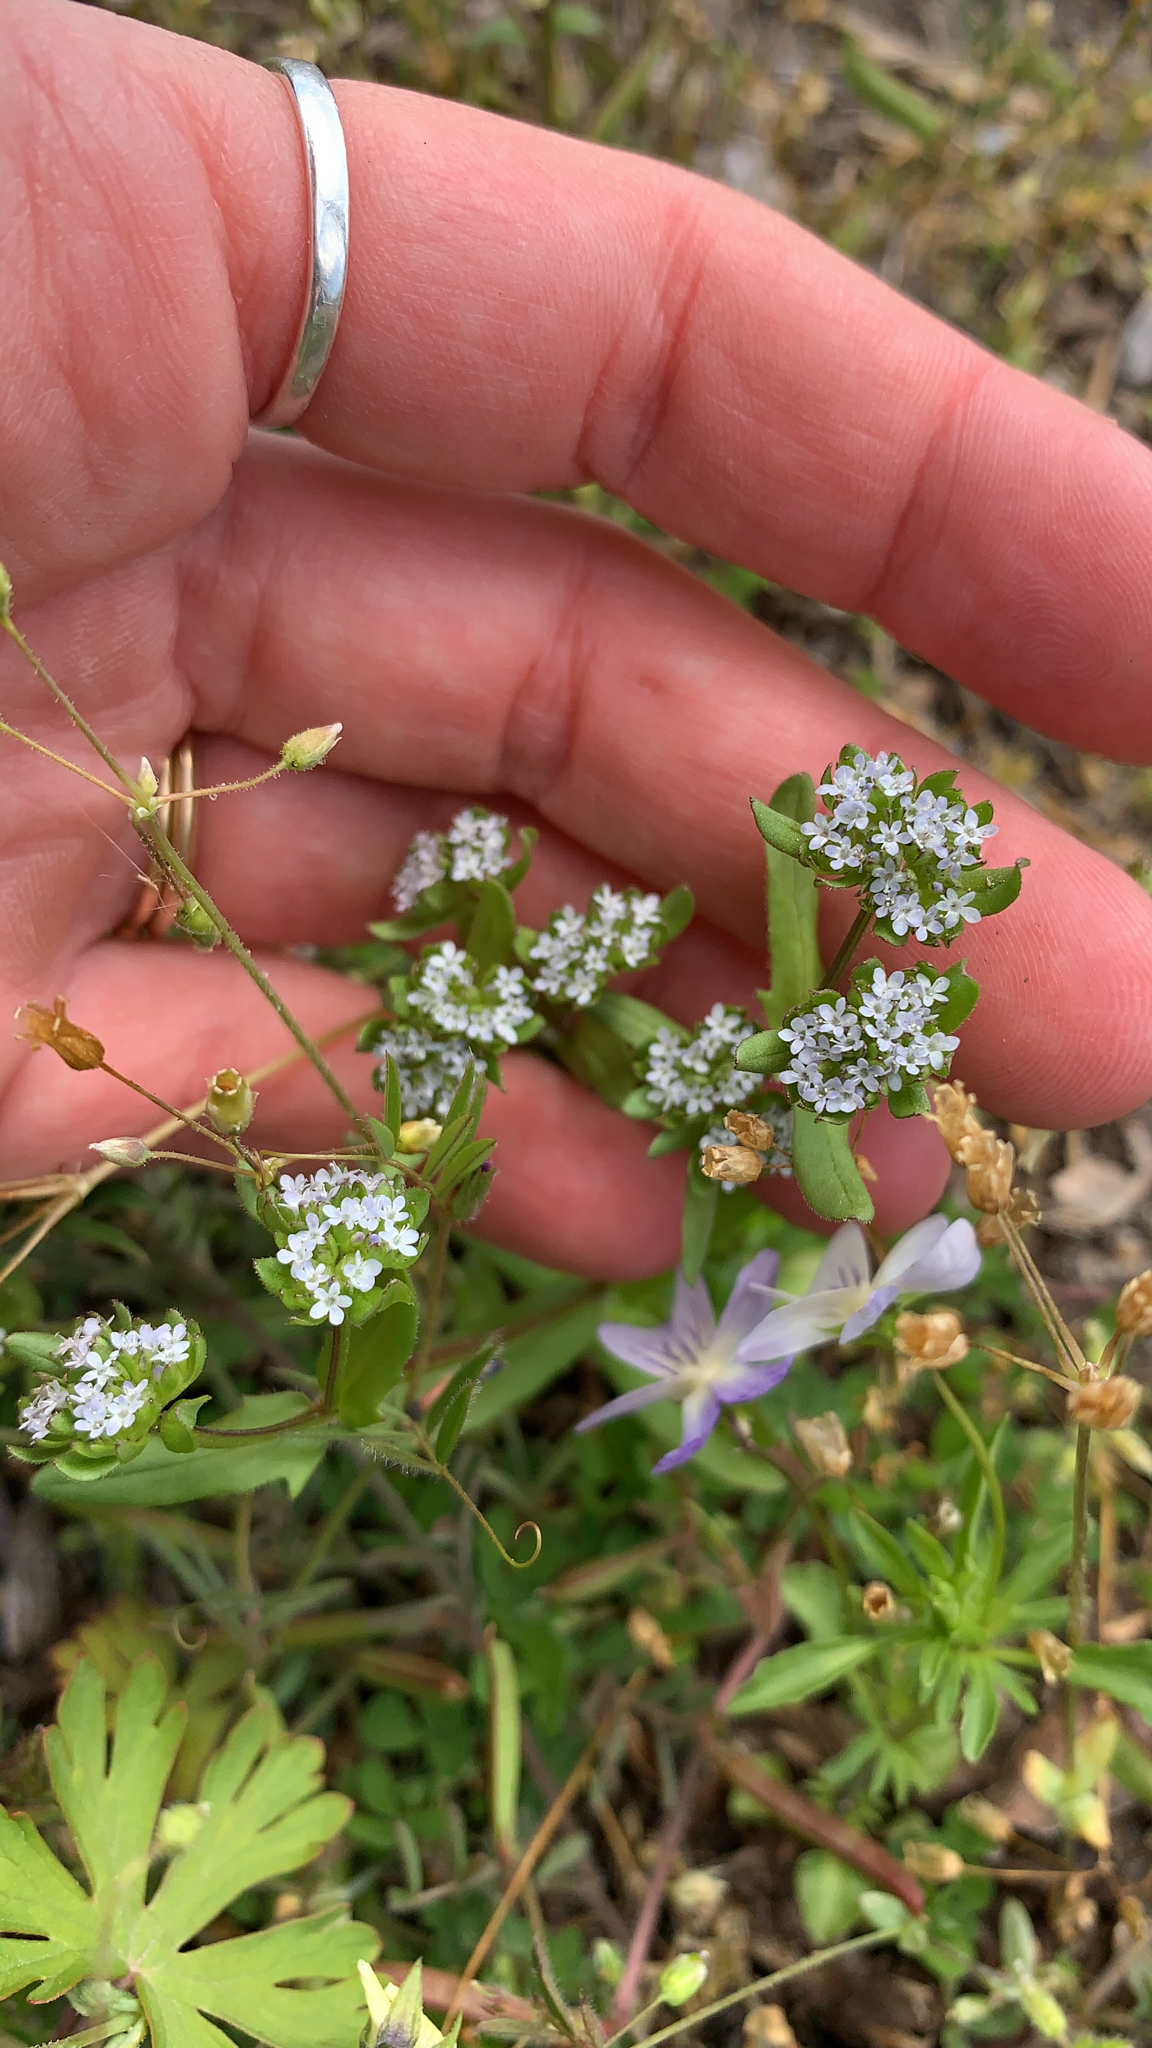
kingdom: Plantae
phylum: Tracheophyta
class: Magnoliopsida
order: Dipsacales
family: Caprifoliaceae
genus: Valerianella
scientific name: Valerianella locusta
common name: Common cornsalad
